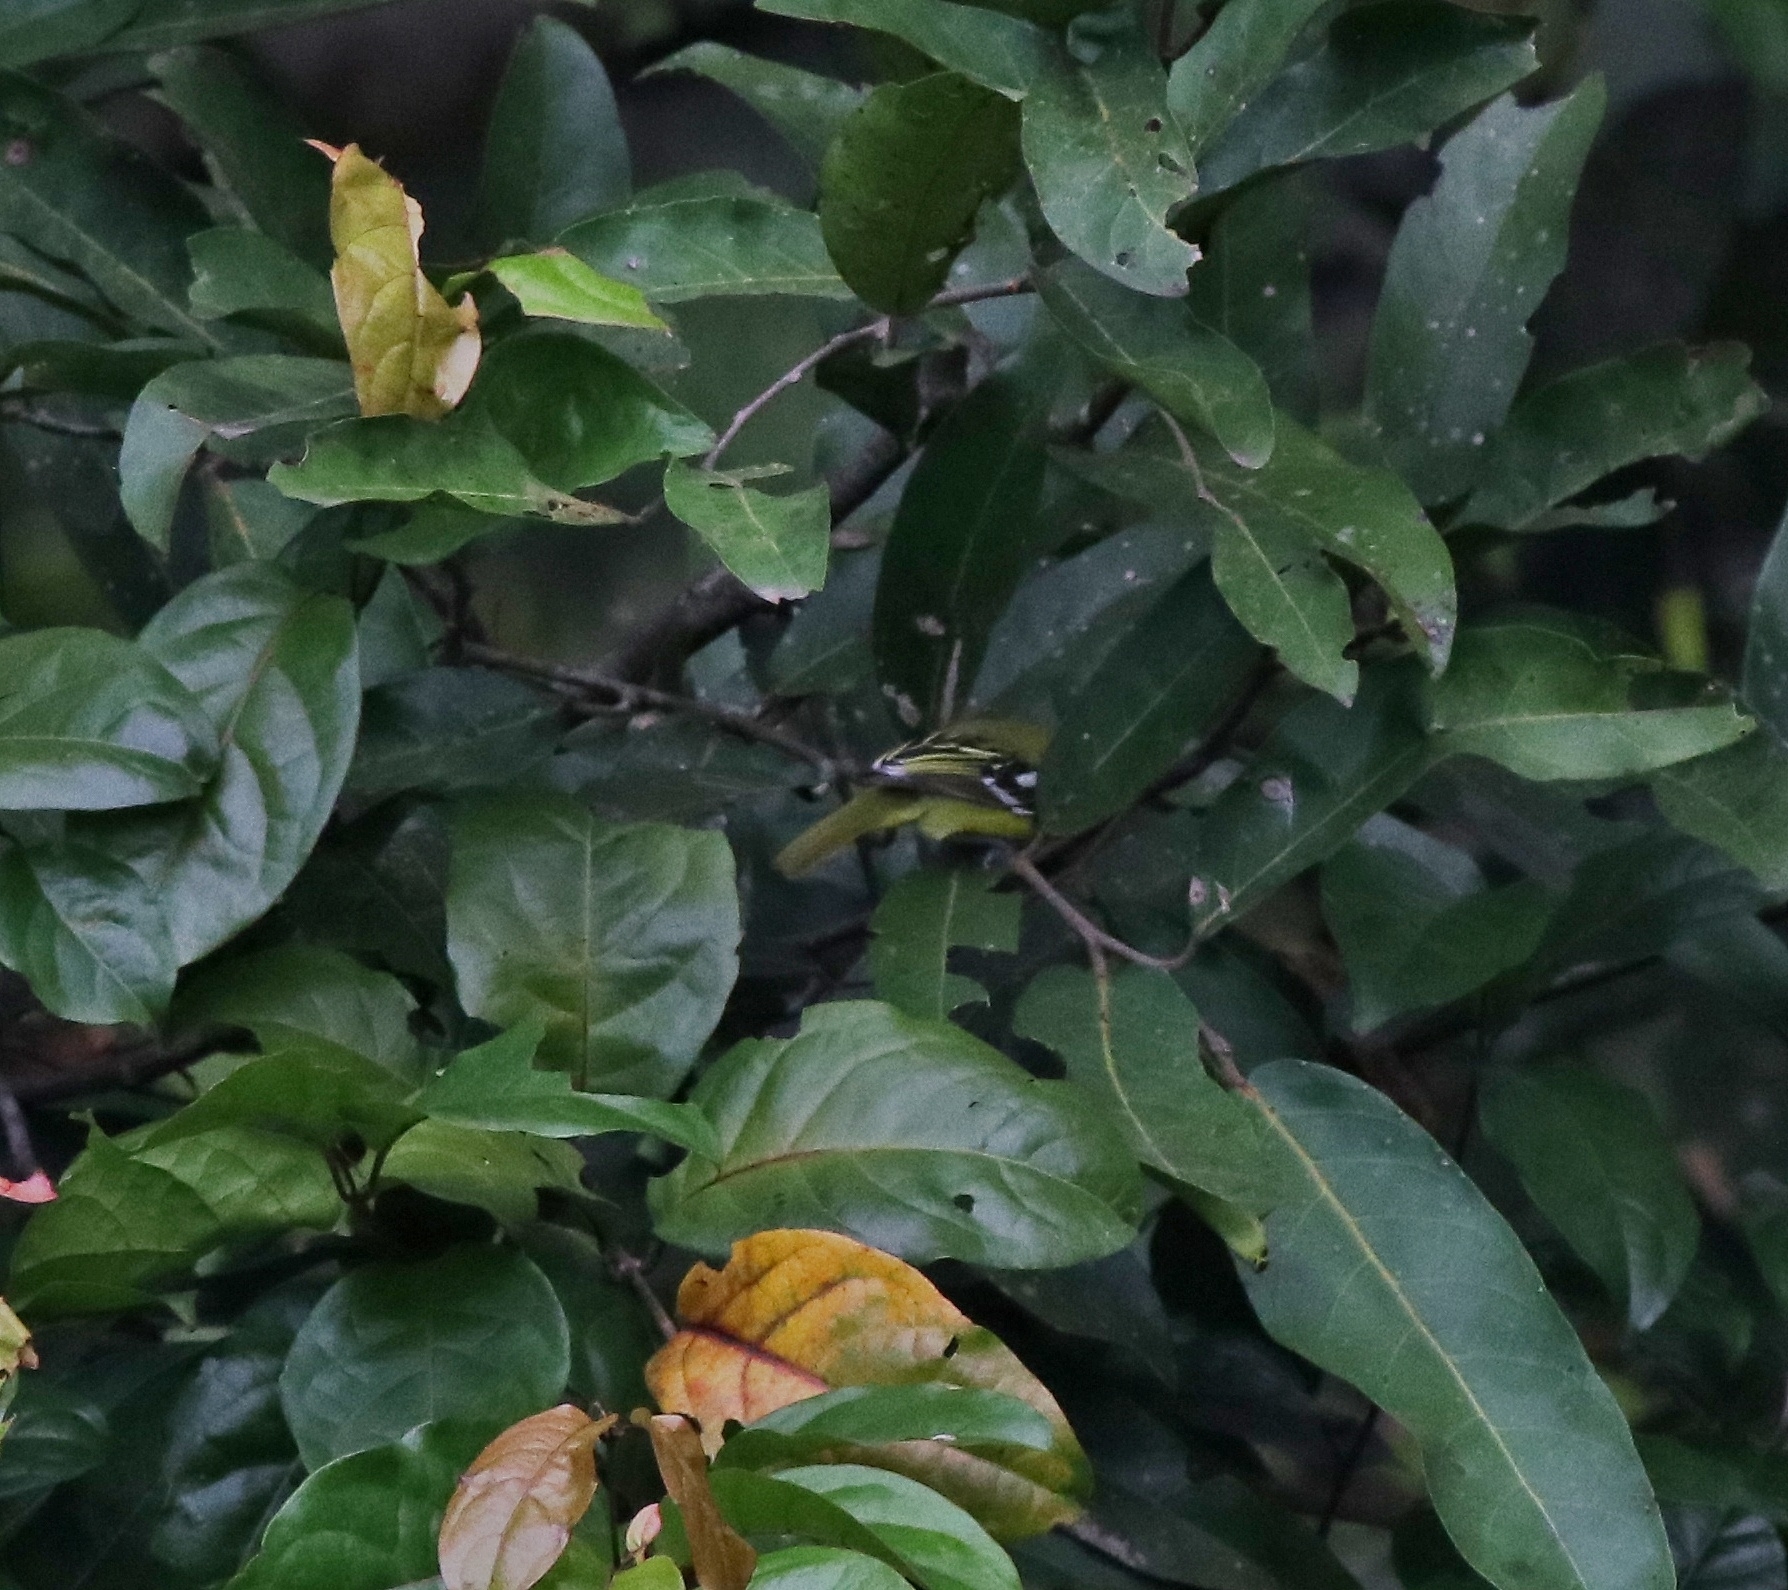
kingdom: Animalia
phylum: Chordata
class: Aves
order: Passeriformes
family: Aegithinidae
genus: Aegithina
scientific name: Aegithina tiphia
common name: Common iora
